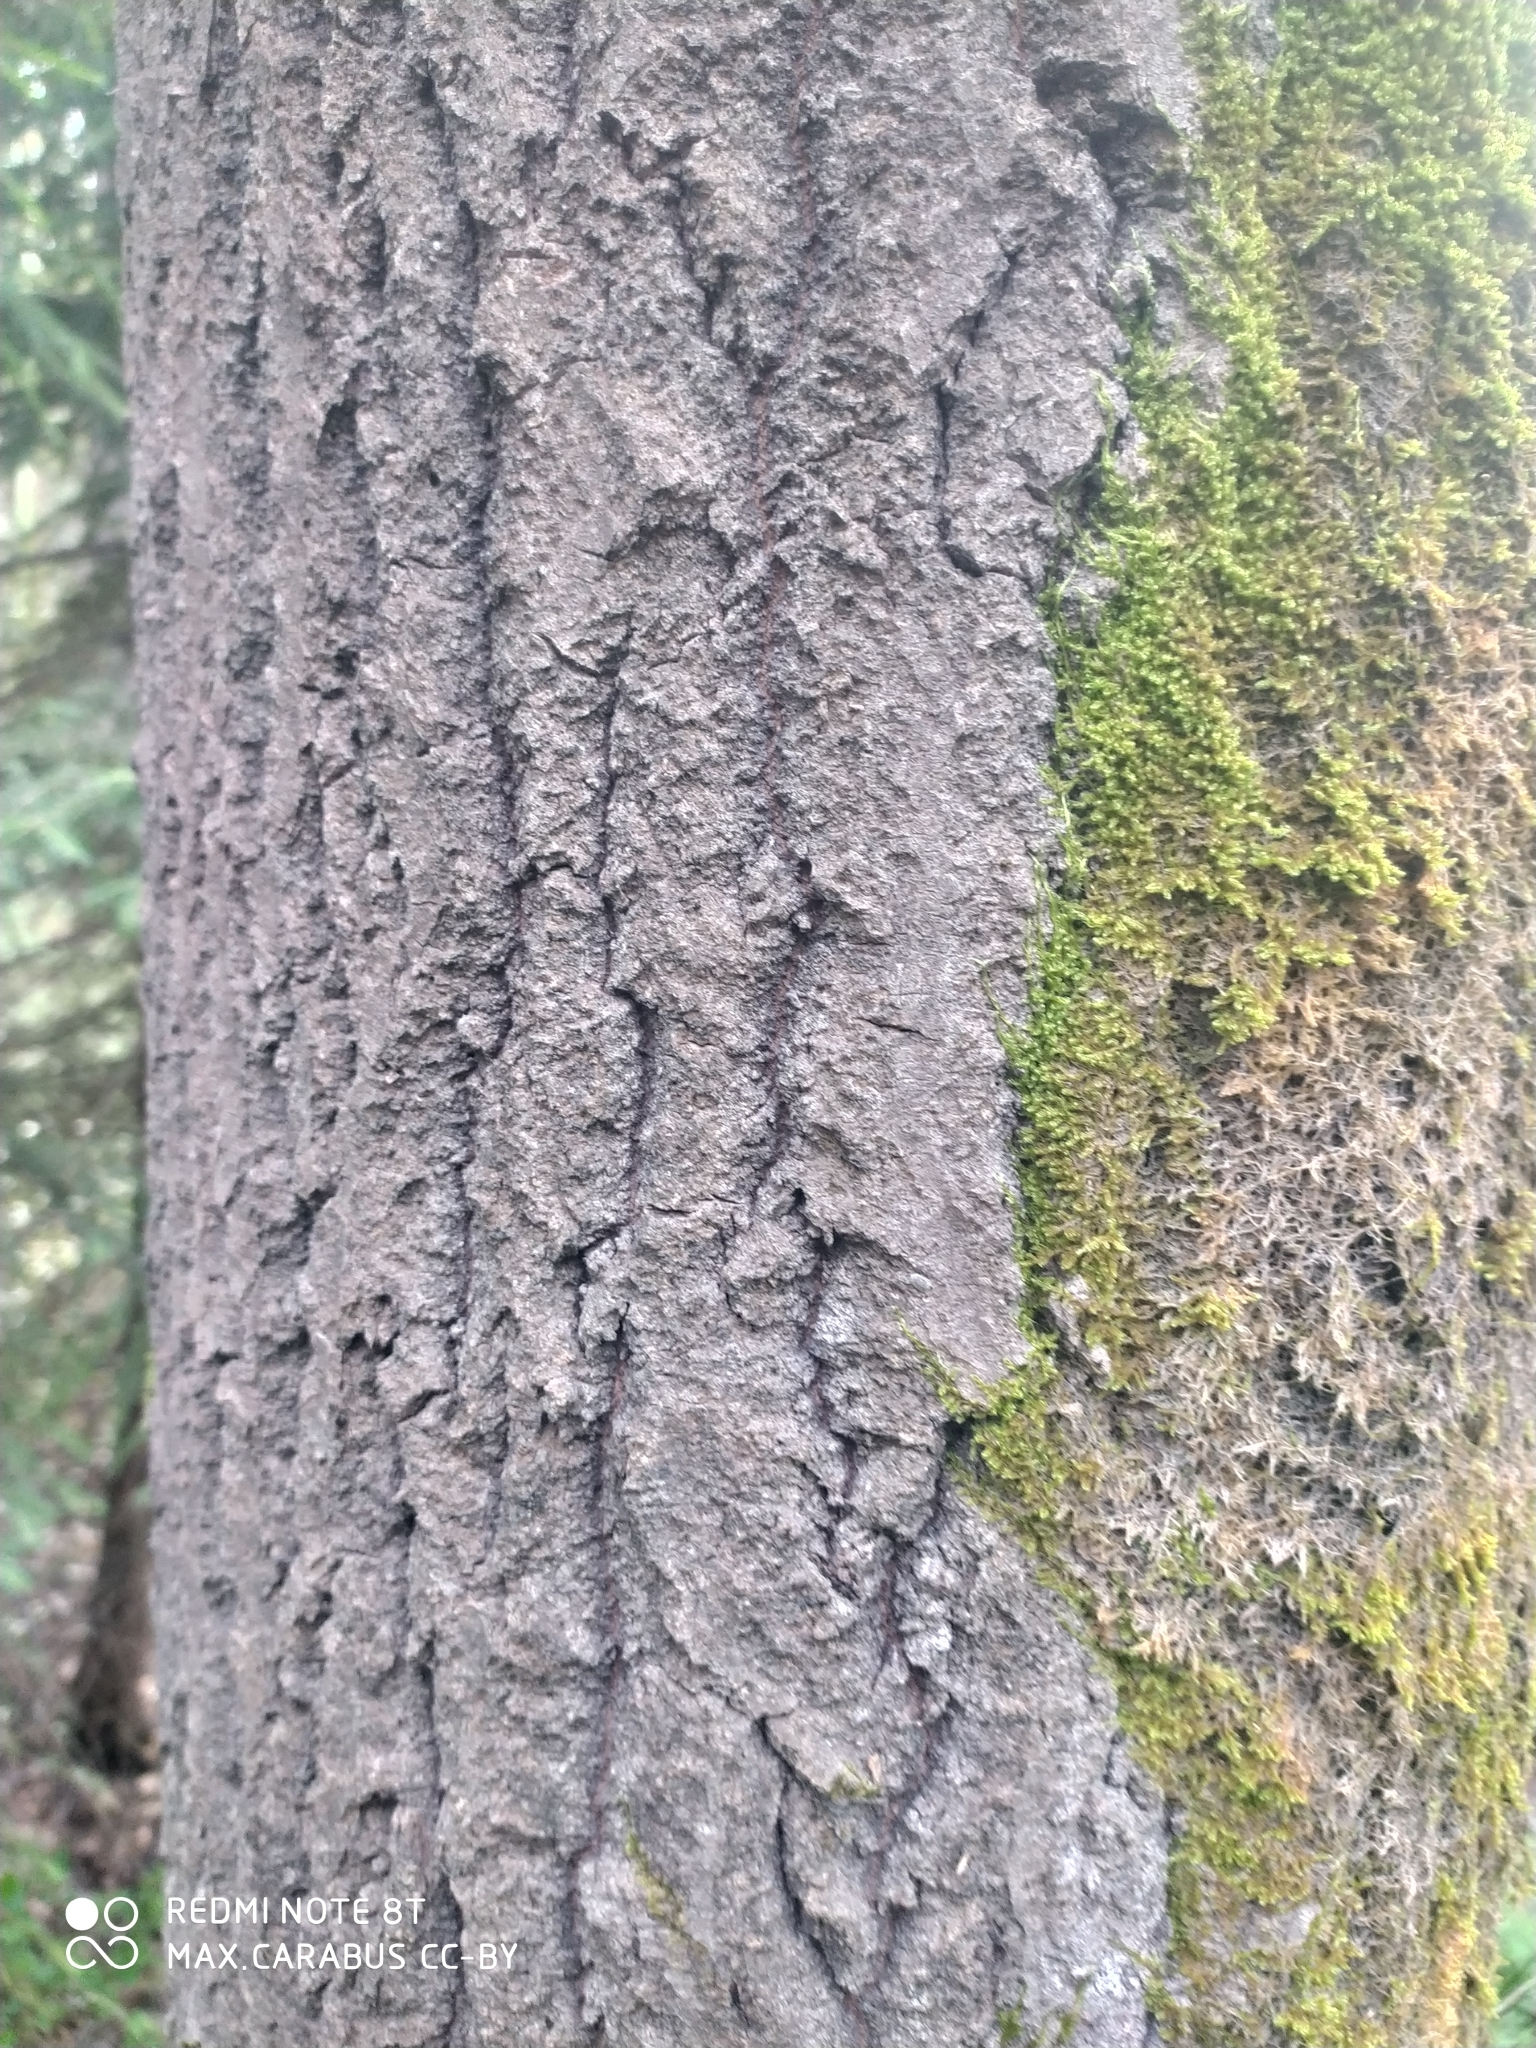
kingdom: Plantae
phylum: Tracheophyta
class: Magnoliopsida
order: Malpighiales
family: Salicaceae
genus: Populus
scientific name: Populus tremula
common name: European aspen
